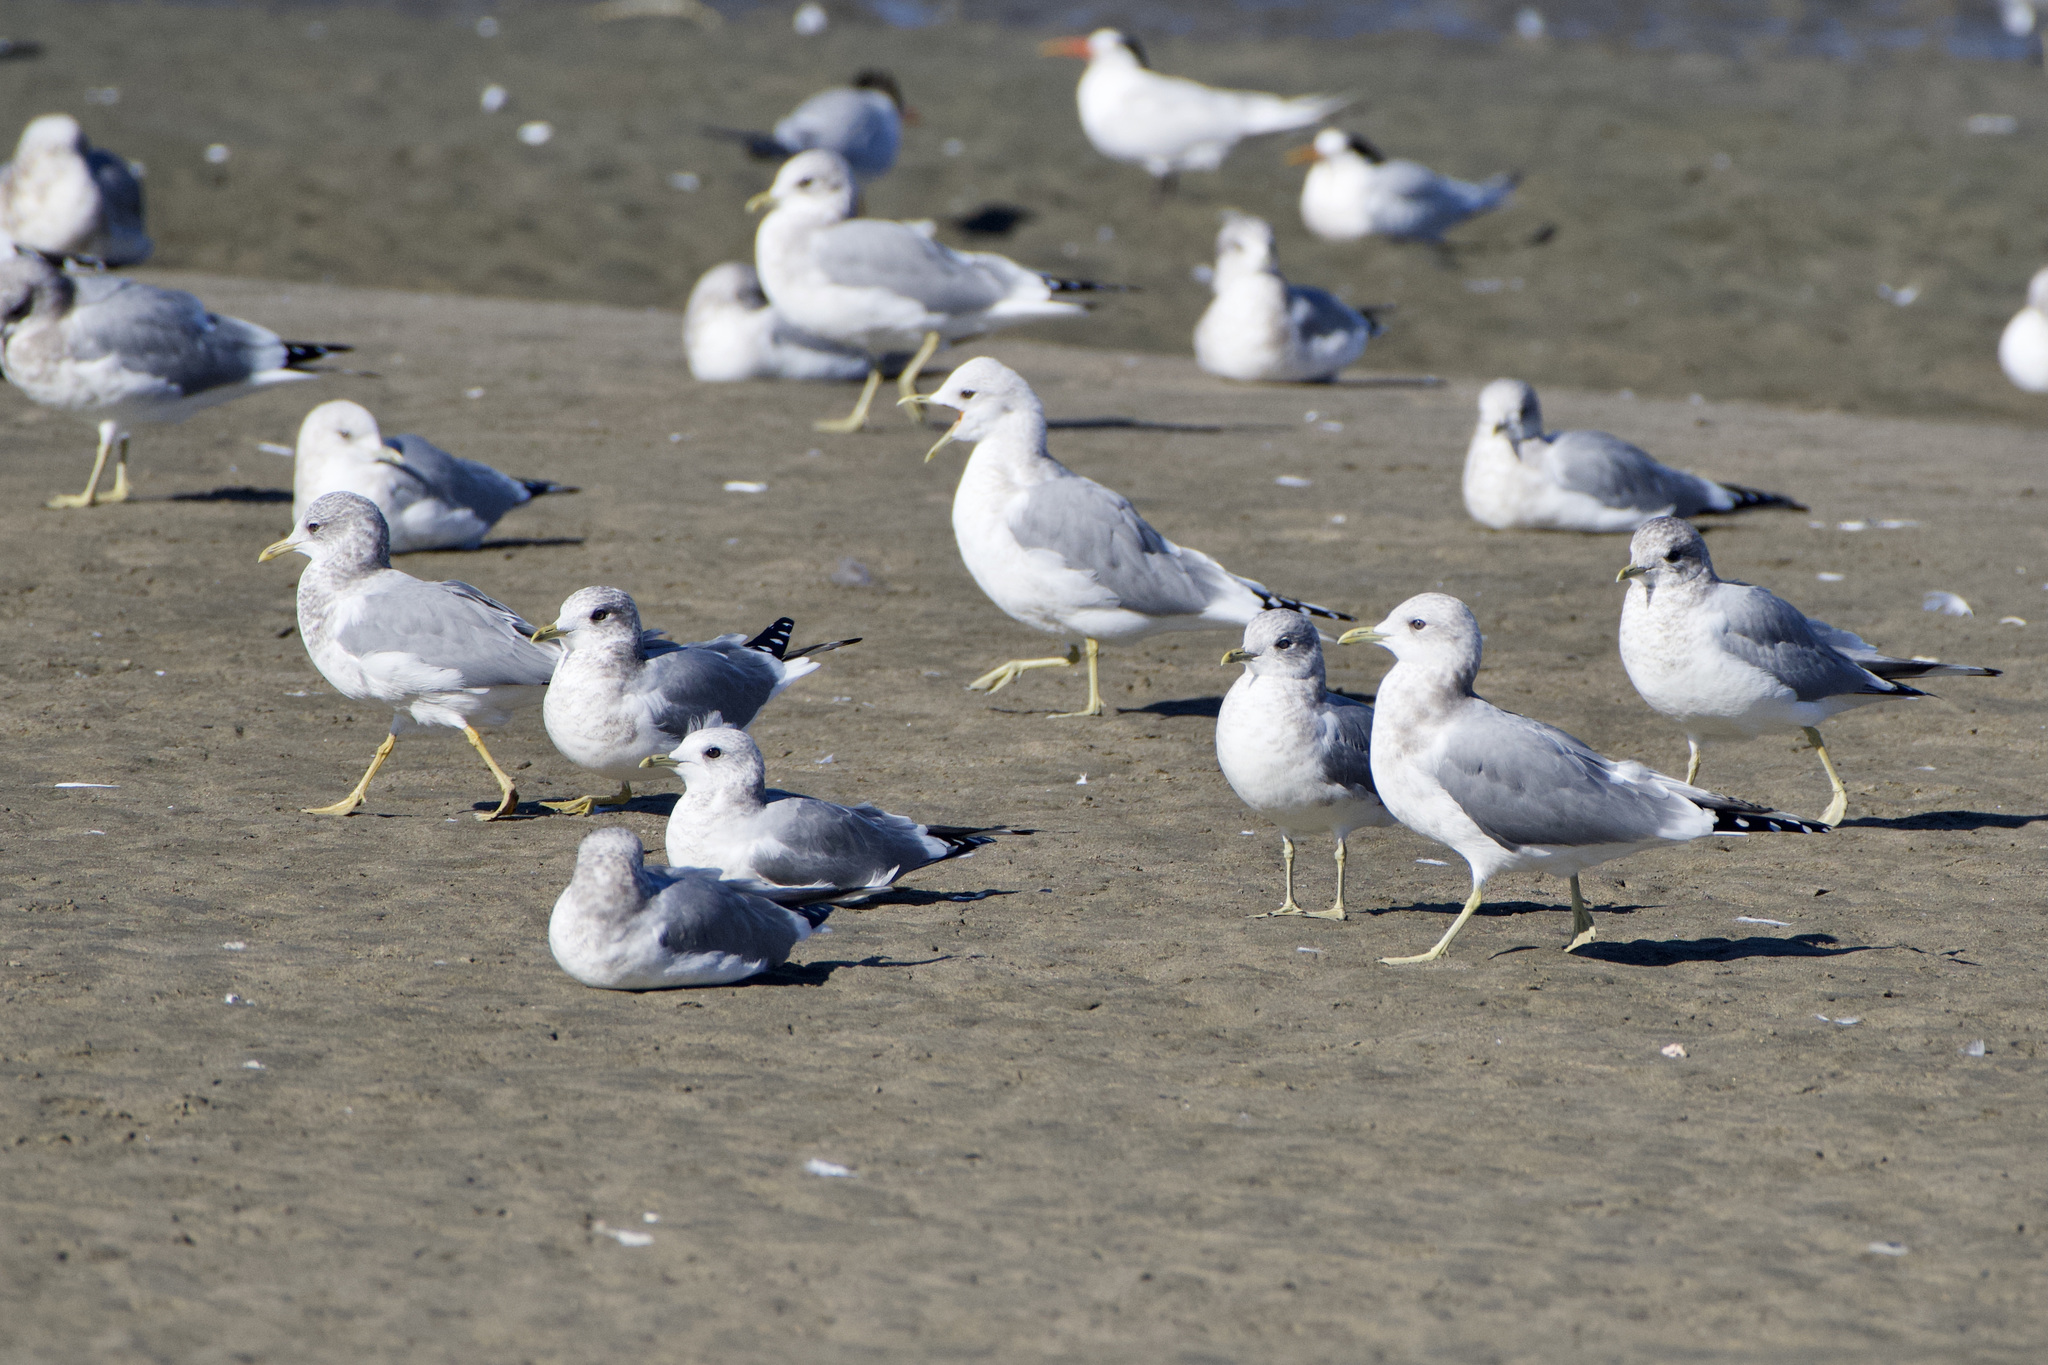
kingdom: Animalia
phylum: Chordata
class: Aves
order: Charadriiformes
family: Laridae
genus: Larus
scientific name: Larus brachyrhynchus
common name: Short-billed gull
